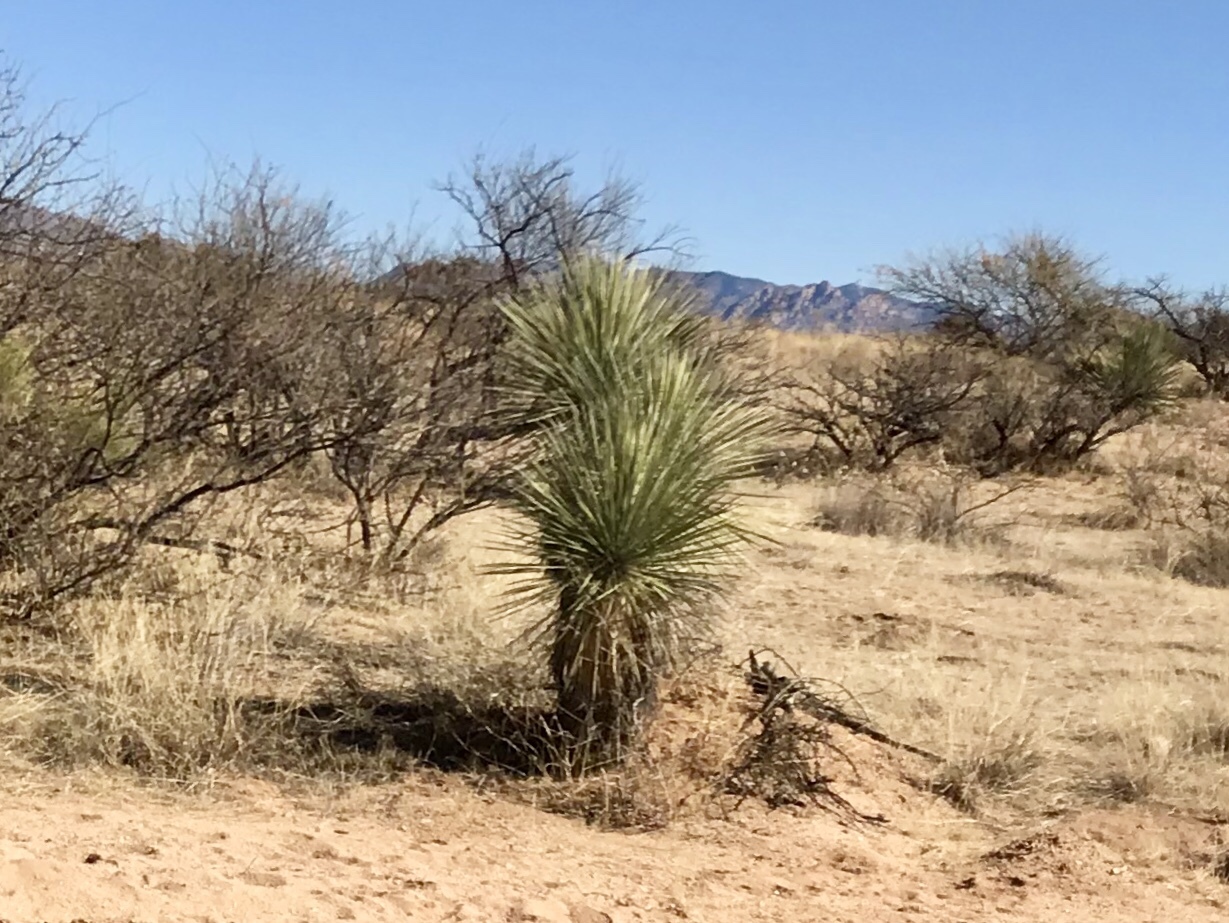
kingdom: Plantae
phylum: Tracheophyta
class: Liliopsida
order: Asparagales
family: Asparagaceae
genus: Yucca
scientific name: Yucca elata
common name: Palmella
